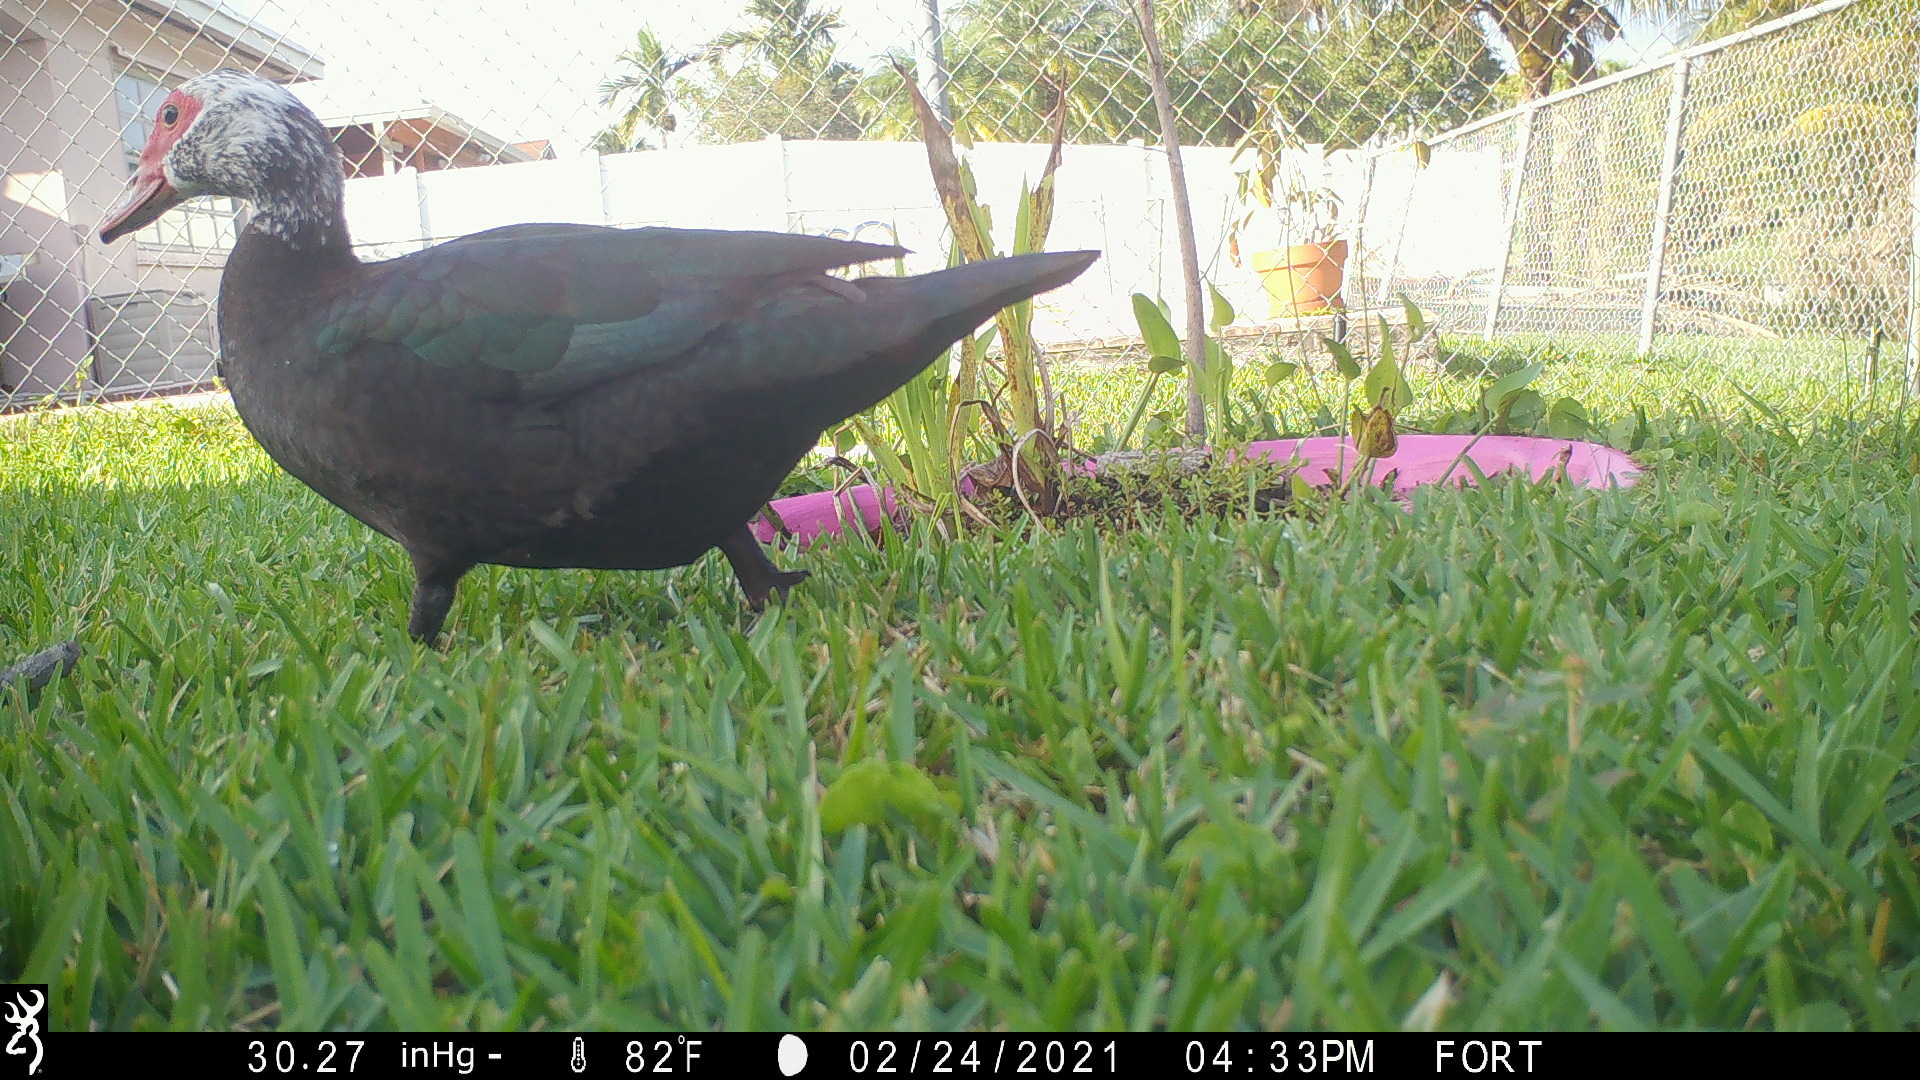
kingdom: Animalia
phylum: Chordata
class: Aves
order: Anseriformes
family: Anatidae
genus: Cairina
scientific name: Cairina moschata
